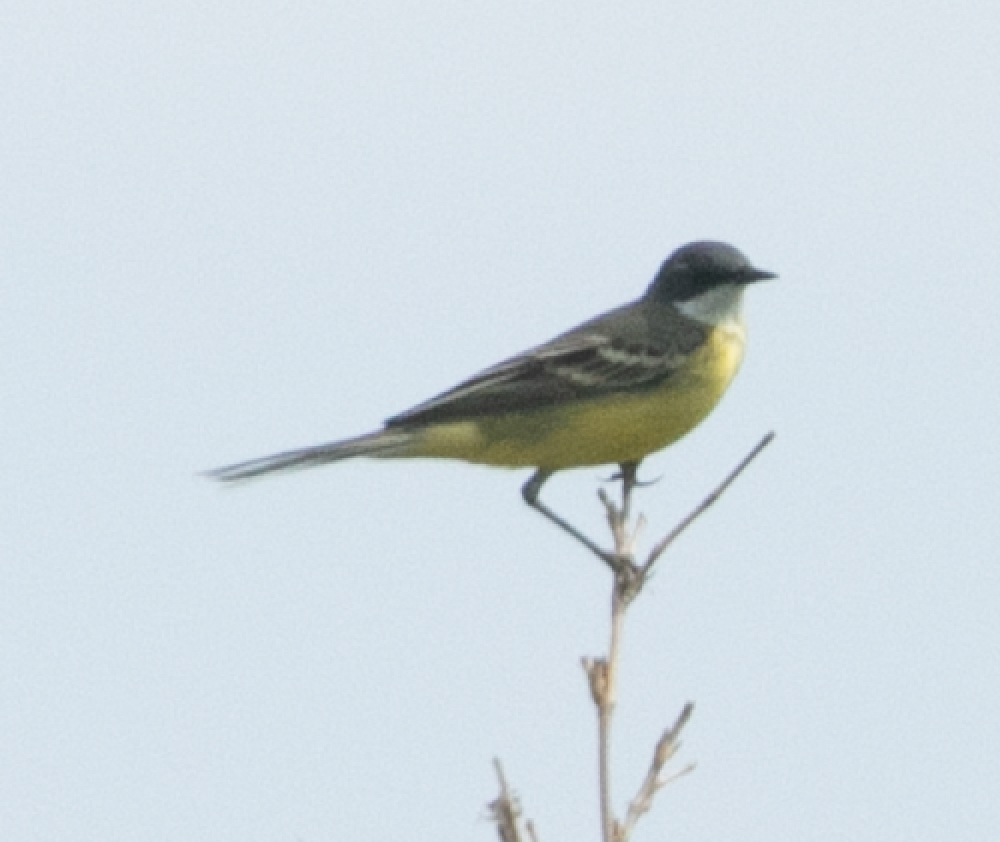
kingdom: Animalia
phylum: Chordata
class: Aves
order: Passeriformes
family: Motacillidae
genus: Motacilla
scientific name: Motacilla flava
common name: Western yellow wagtail
